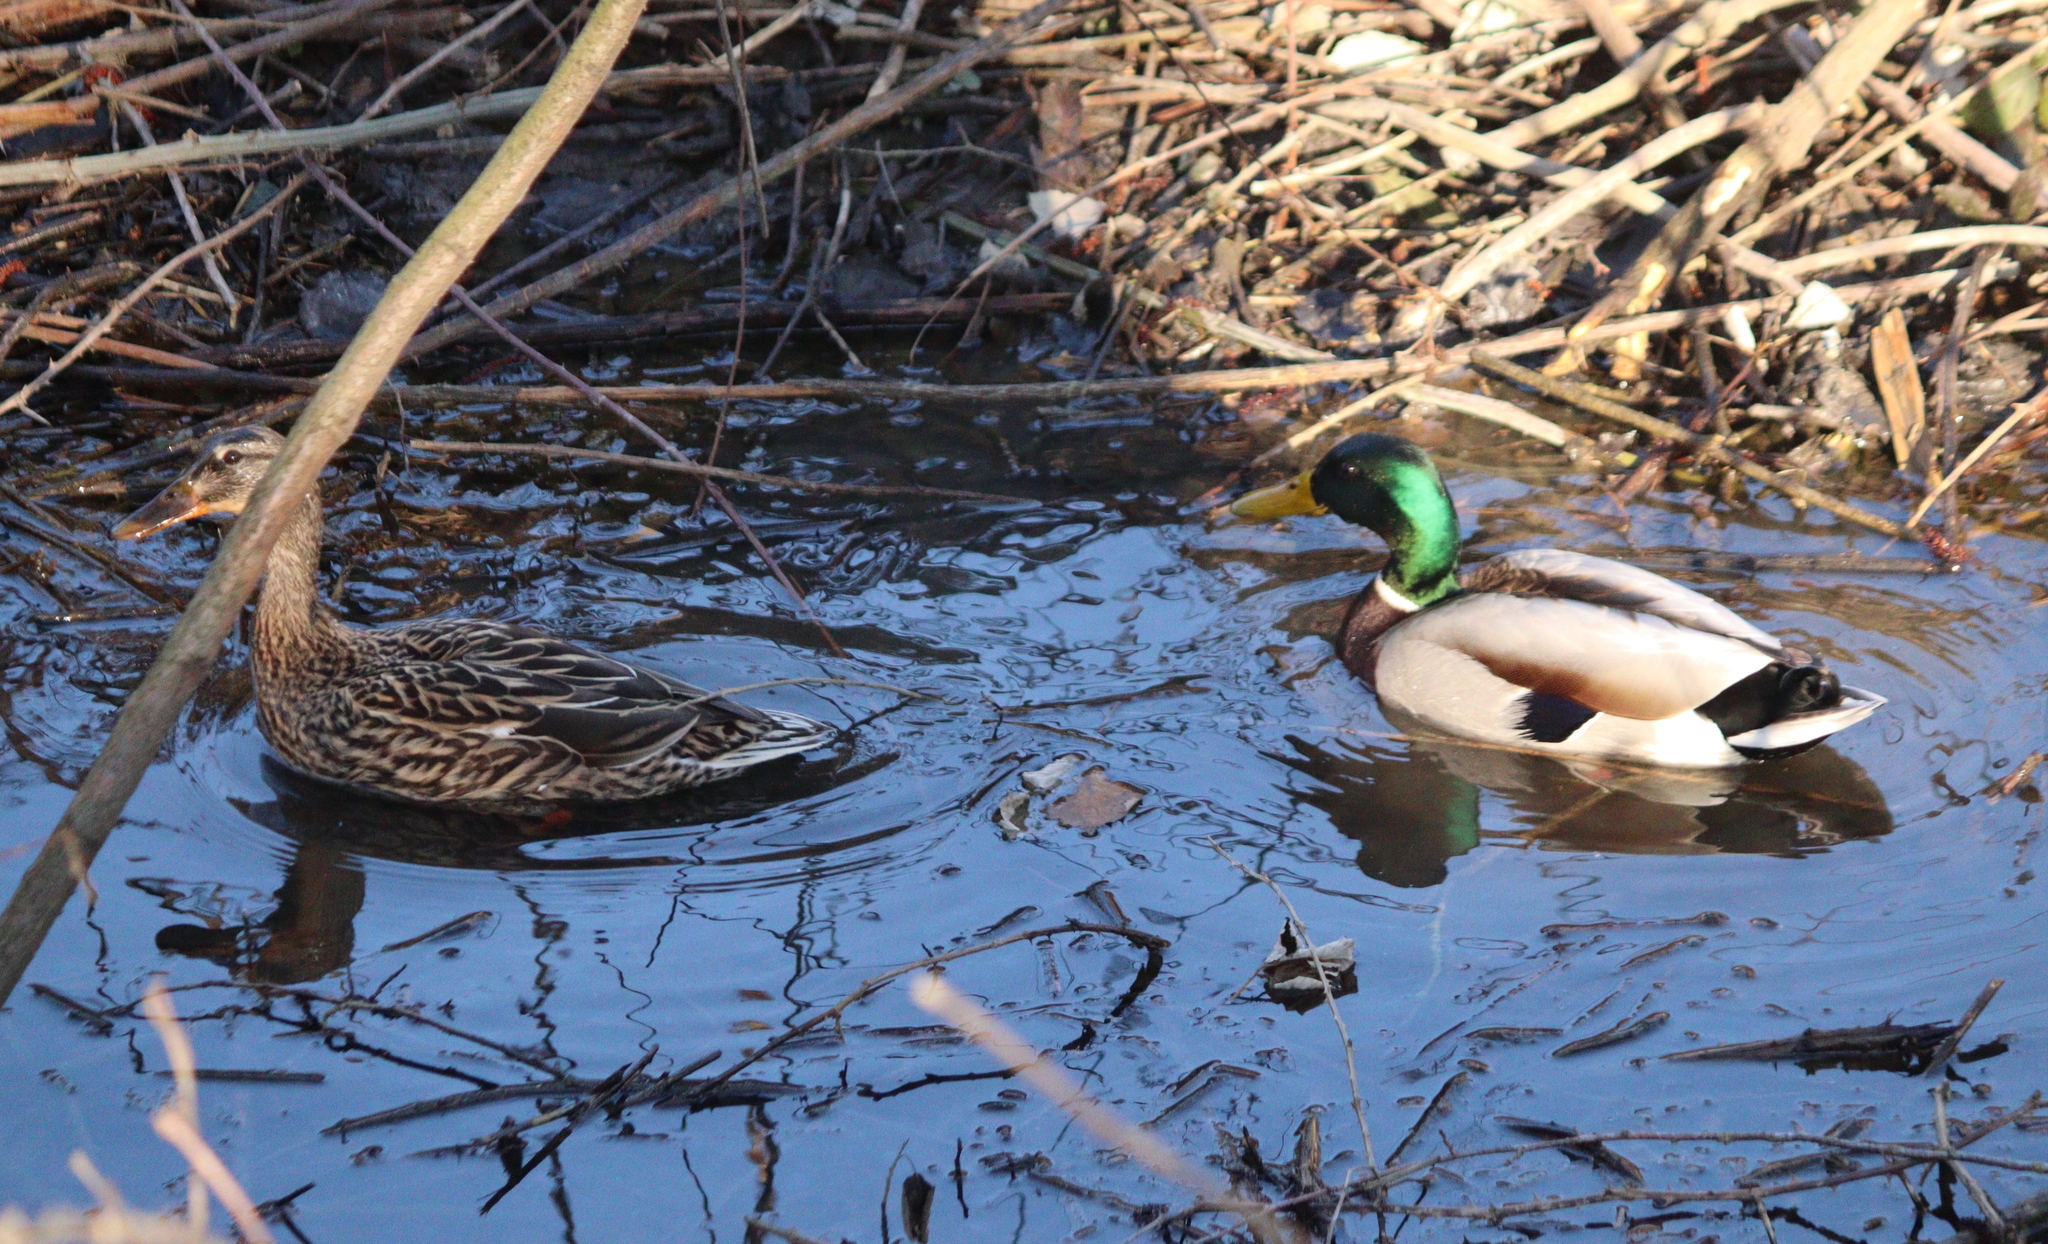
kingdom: Animalia
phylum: Chordata
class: Aves
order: Anseriformes
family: Anatidae
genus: Anas
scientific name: Anas platyrhynchos
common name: Mallard
